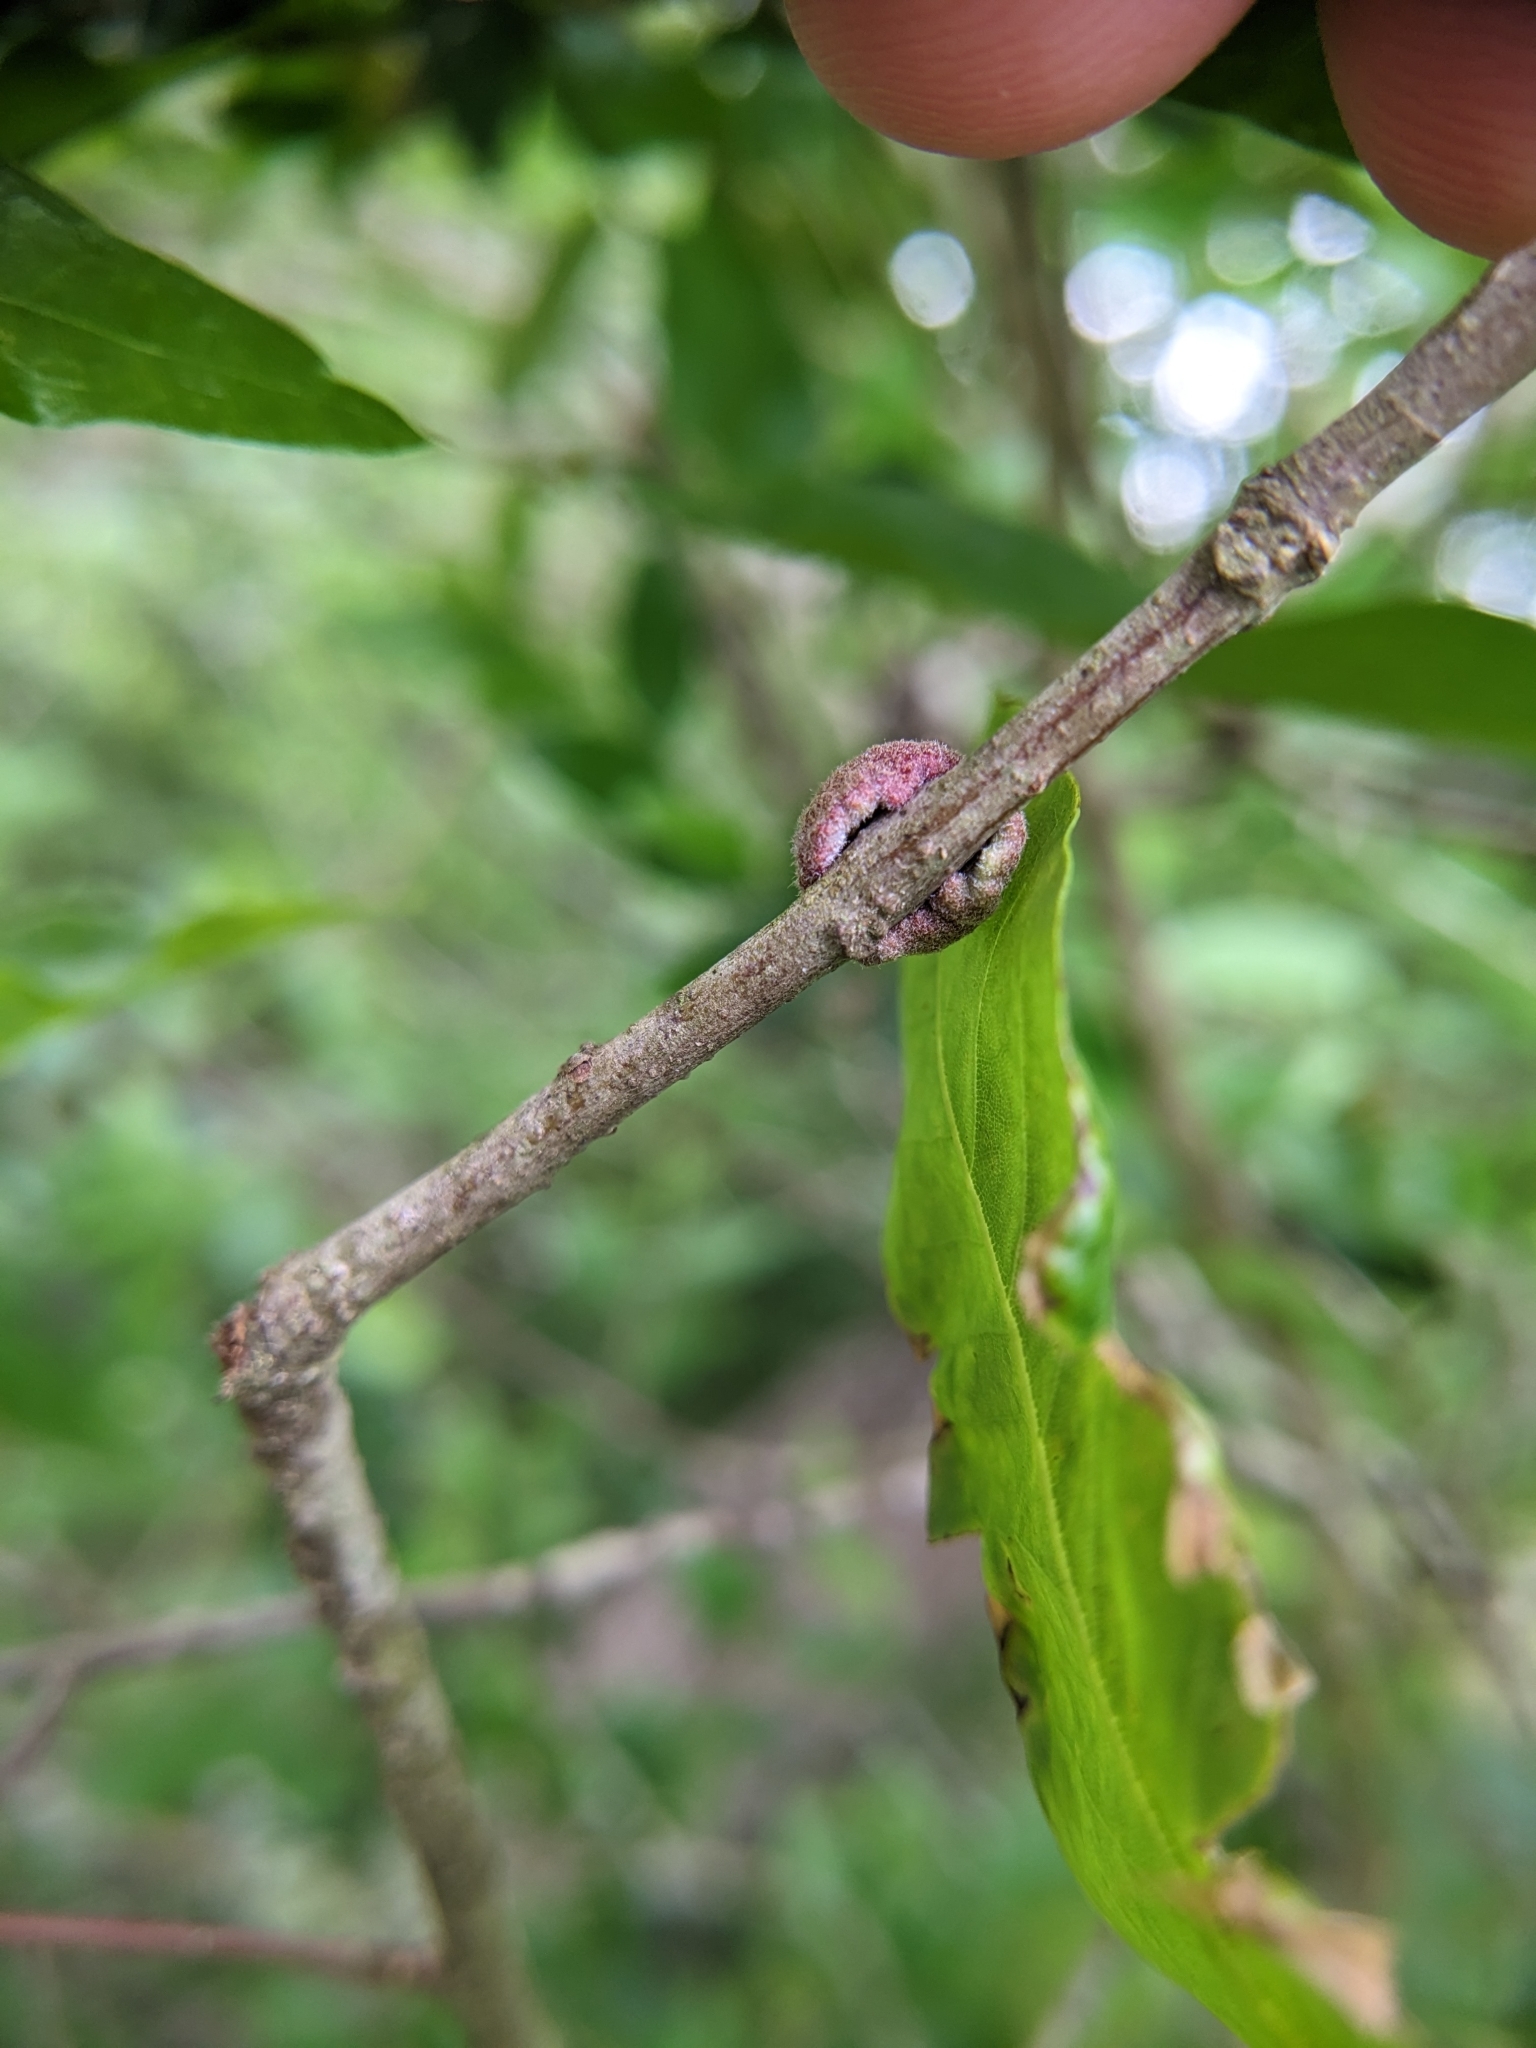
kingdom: Animalia
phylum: Arthropoda
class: Insecta
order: Hymenoptera
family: Cynipidae
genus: Callirhytis
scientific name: Callirhytis
